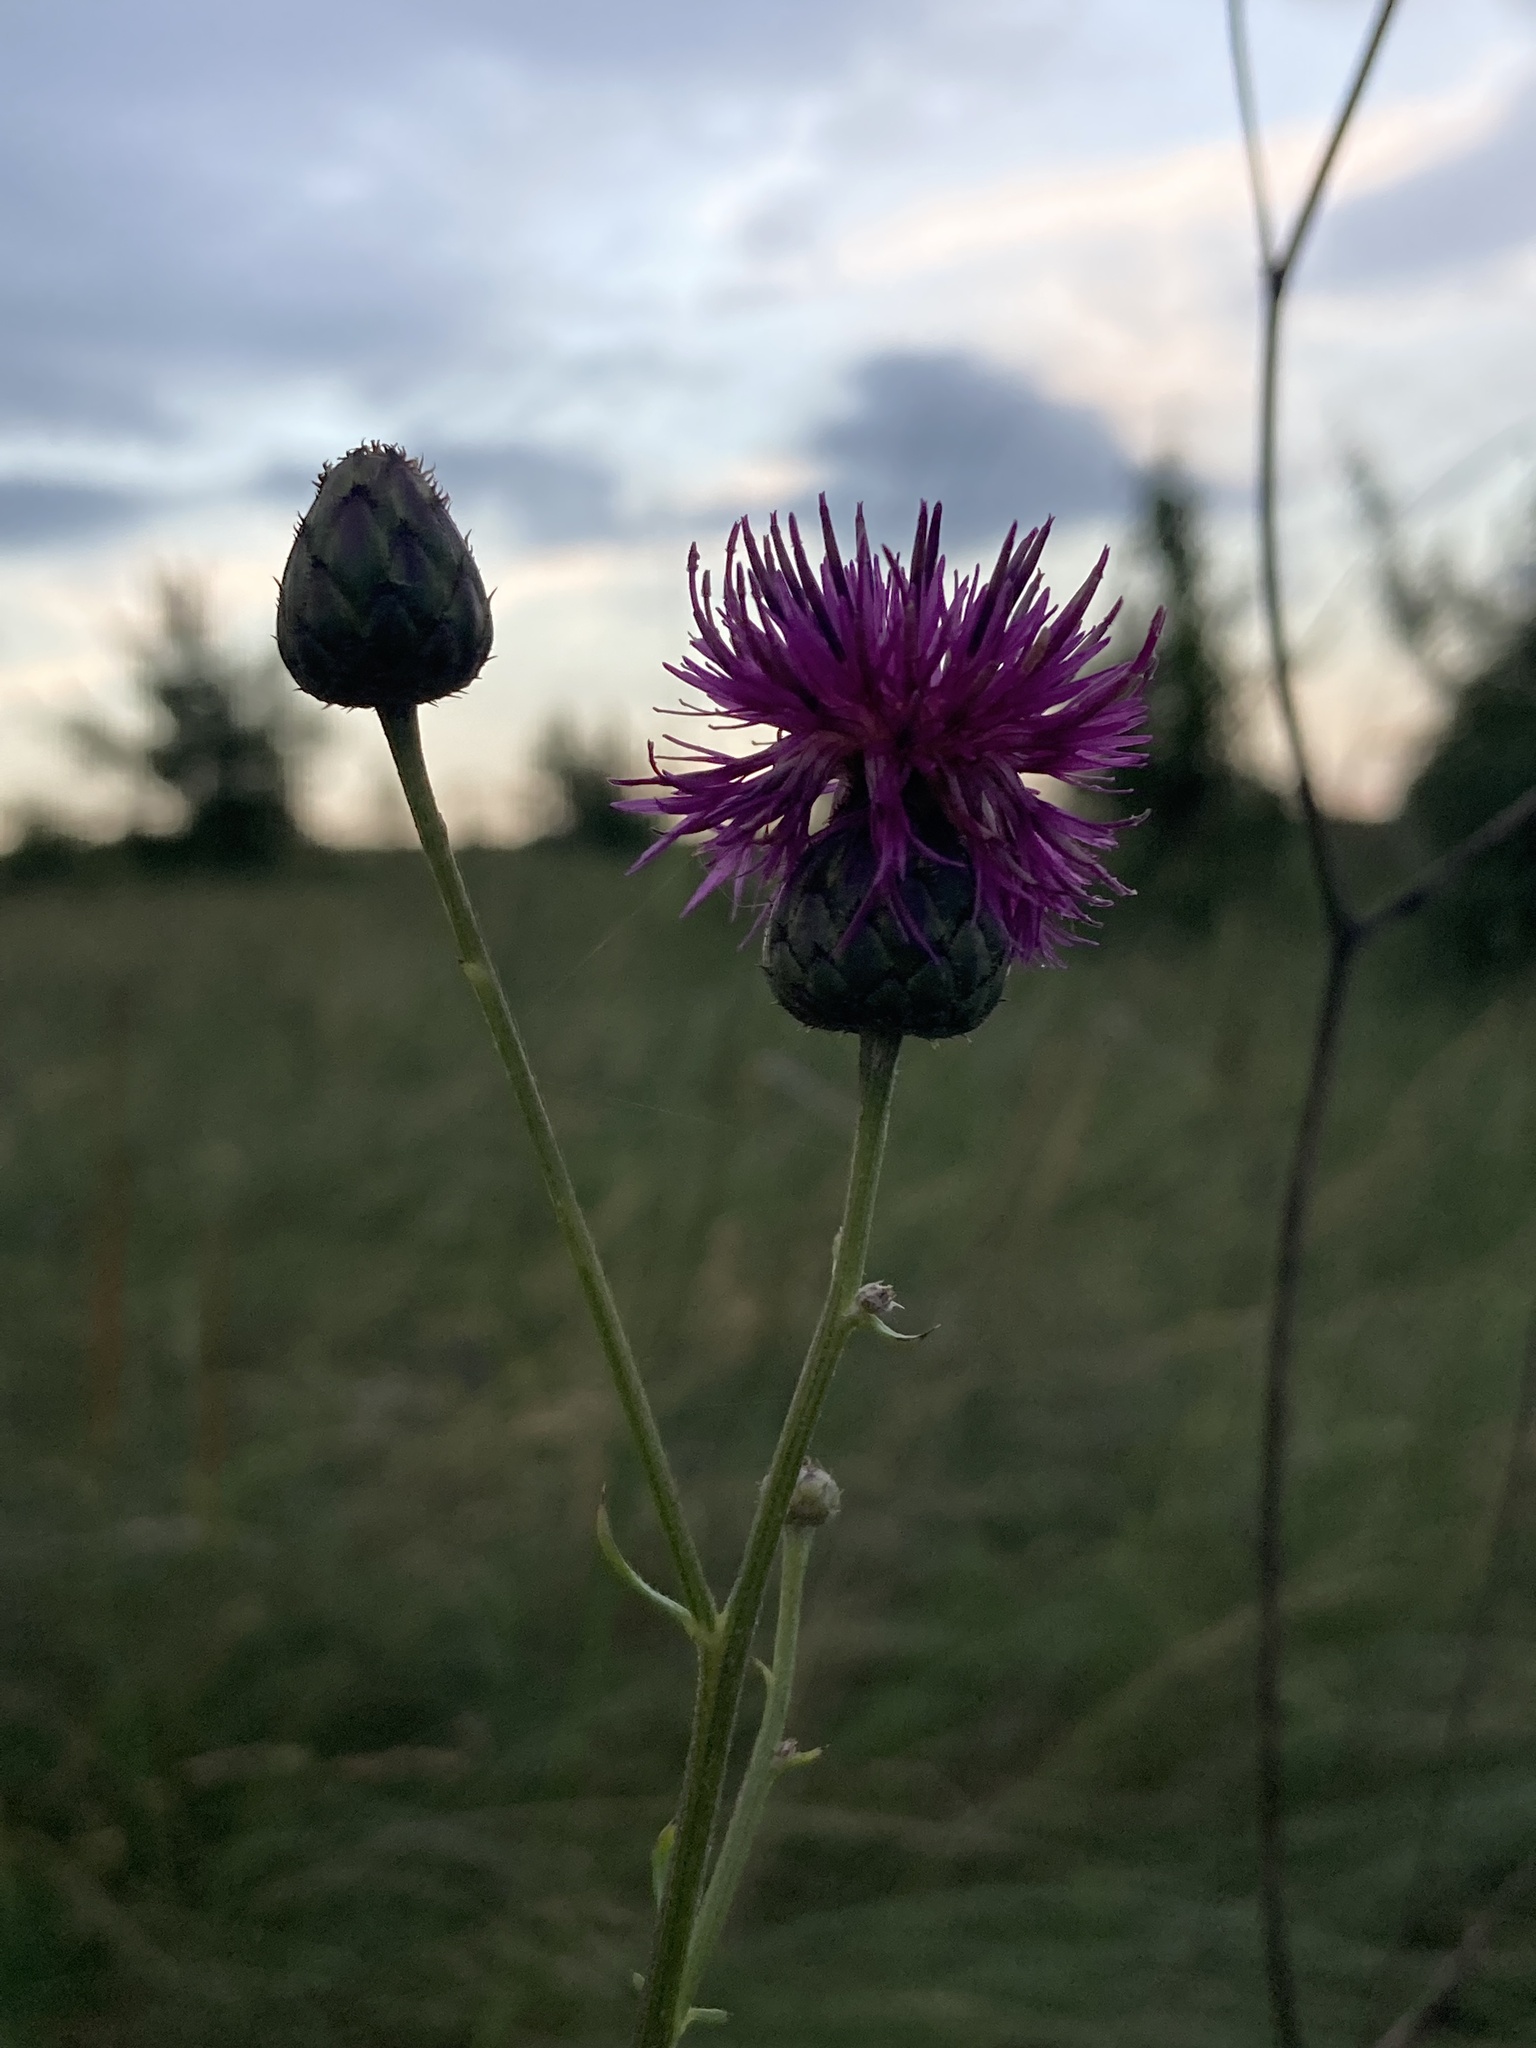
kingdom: Plantae
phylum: Tracheophyta
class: Magnoliopsida
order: Asterales
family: Asteraceae
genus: Centaurea
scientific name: Centaurea scabiosa
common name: Greater knapweed
